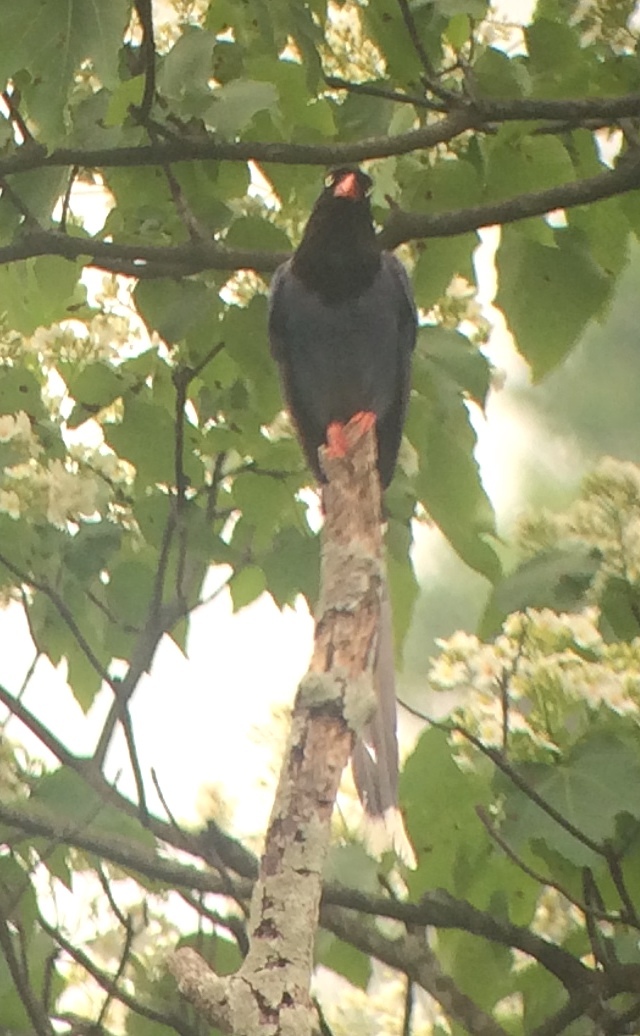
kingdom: Animalia
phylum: Chordata
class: Aves
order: Passeriformes
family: Corvidae
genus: Urocissa
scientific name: Urocissa caerulea
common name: Taiwan blue magpie
